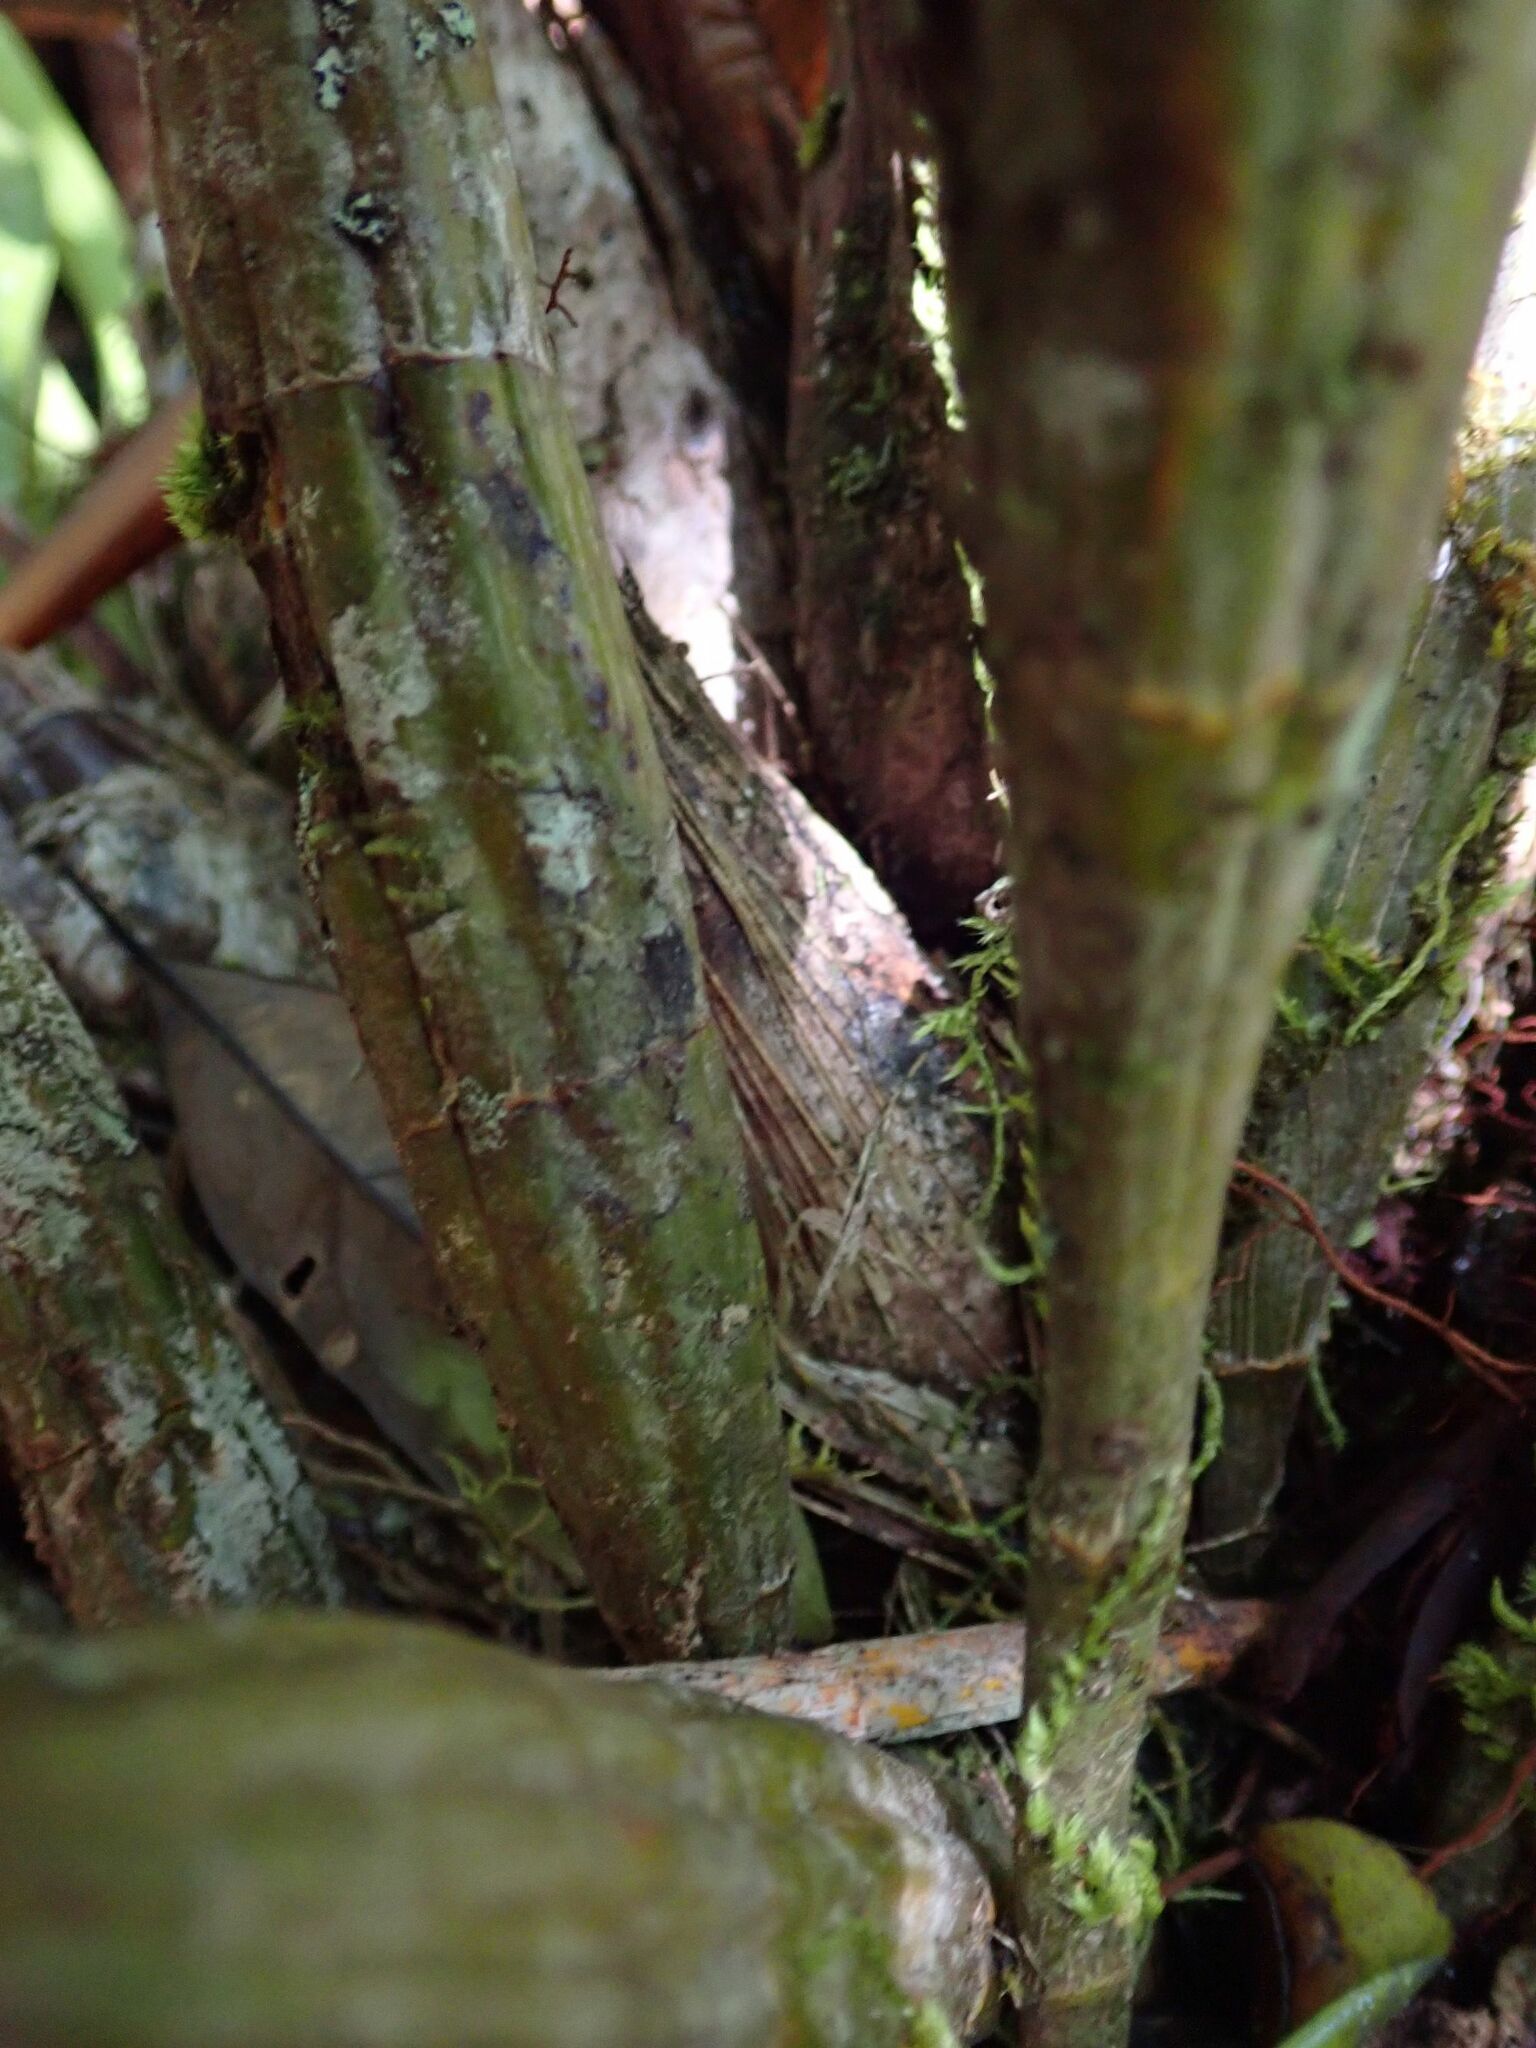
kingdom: Plantae
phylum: Tracheophyta
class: Liliopsida
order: Asparagales
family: Orchidaceae
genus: Dendrobium
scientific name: Dendrobium jonesii
